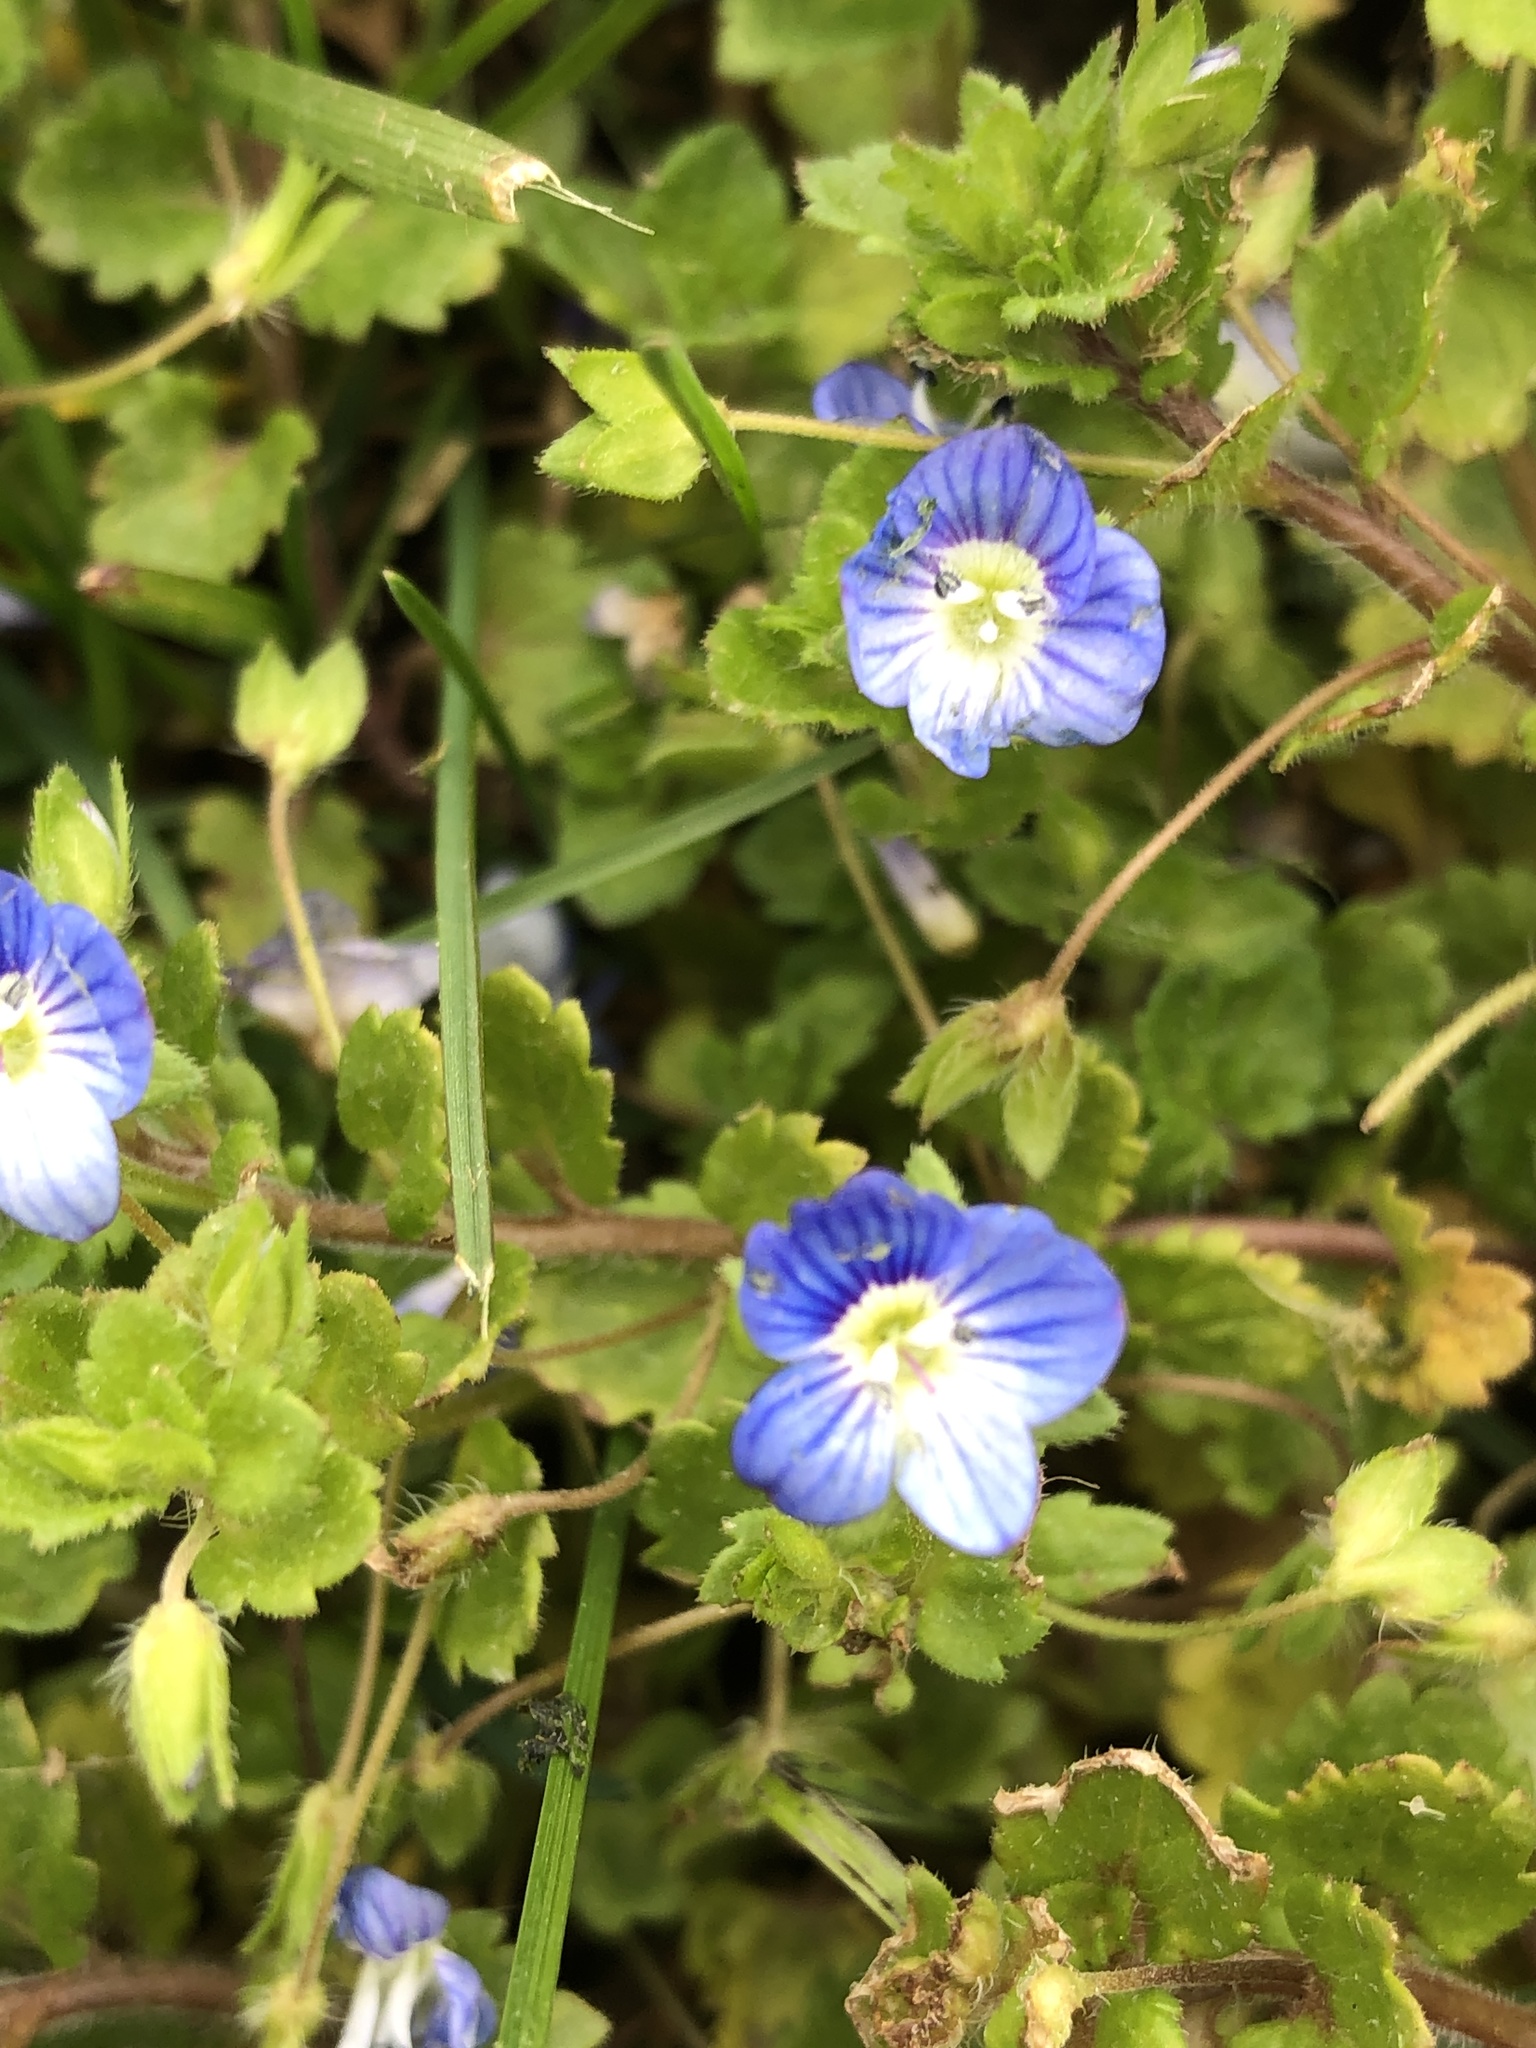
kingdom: Plantae
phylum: Tracheophyta
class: Magnoliopsida
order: Lamiales
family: Plantaginaceae
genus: Veronica
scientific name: Veronica persica
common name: Common field-speedwell
